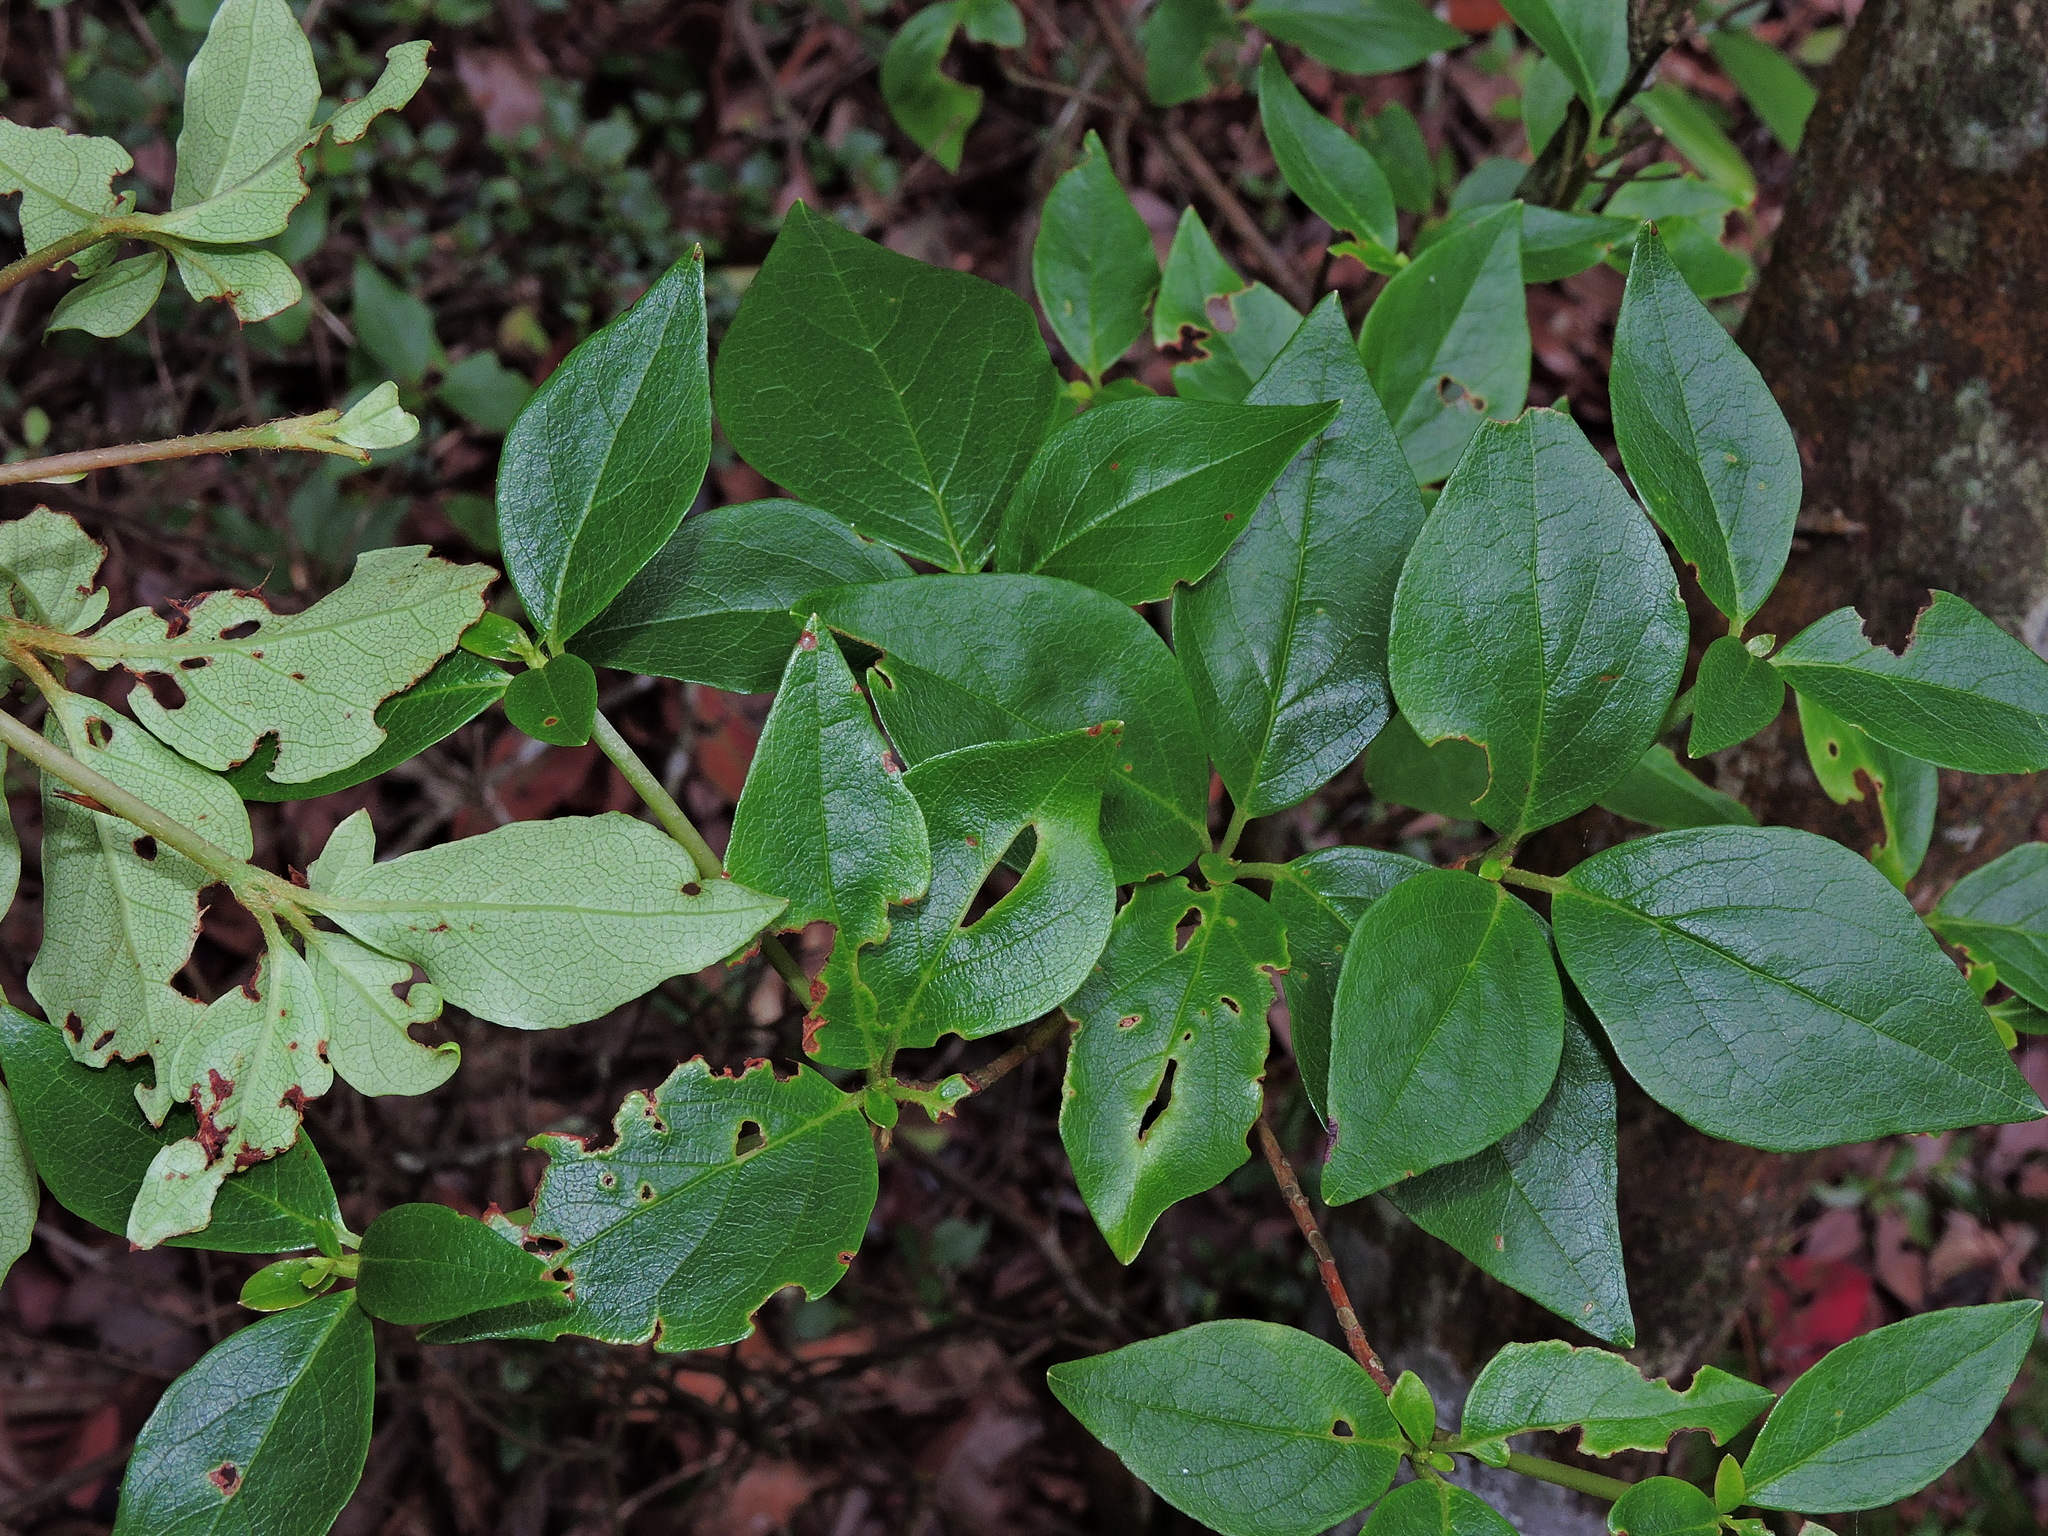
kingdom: Plantae
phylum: Tracheophyta
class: Magnoliopsida
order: Ericales
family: Ericaceae
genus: Rhododendron
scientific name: Rhododendron mariesii
